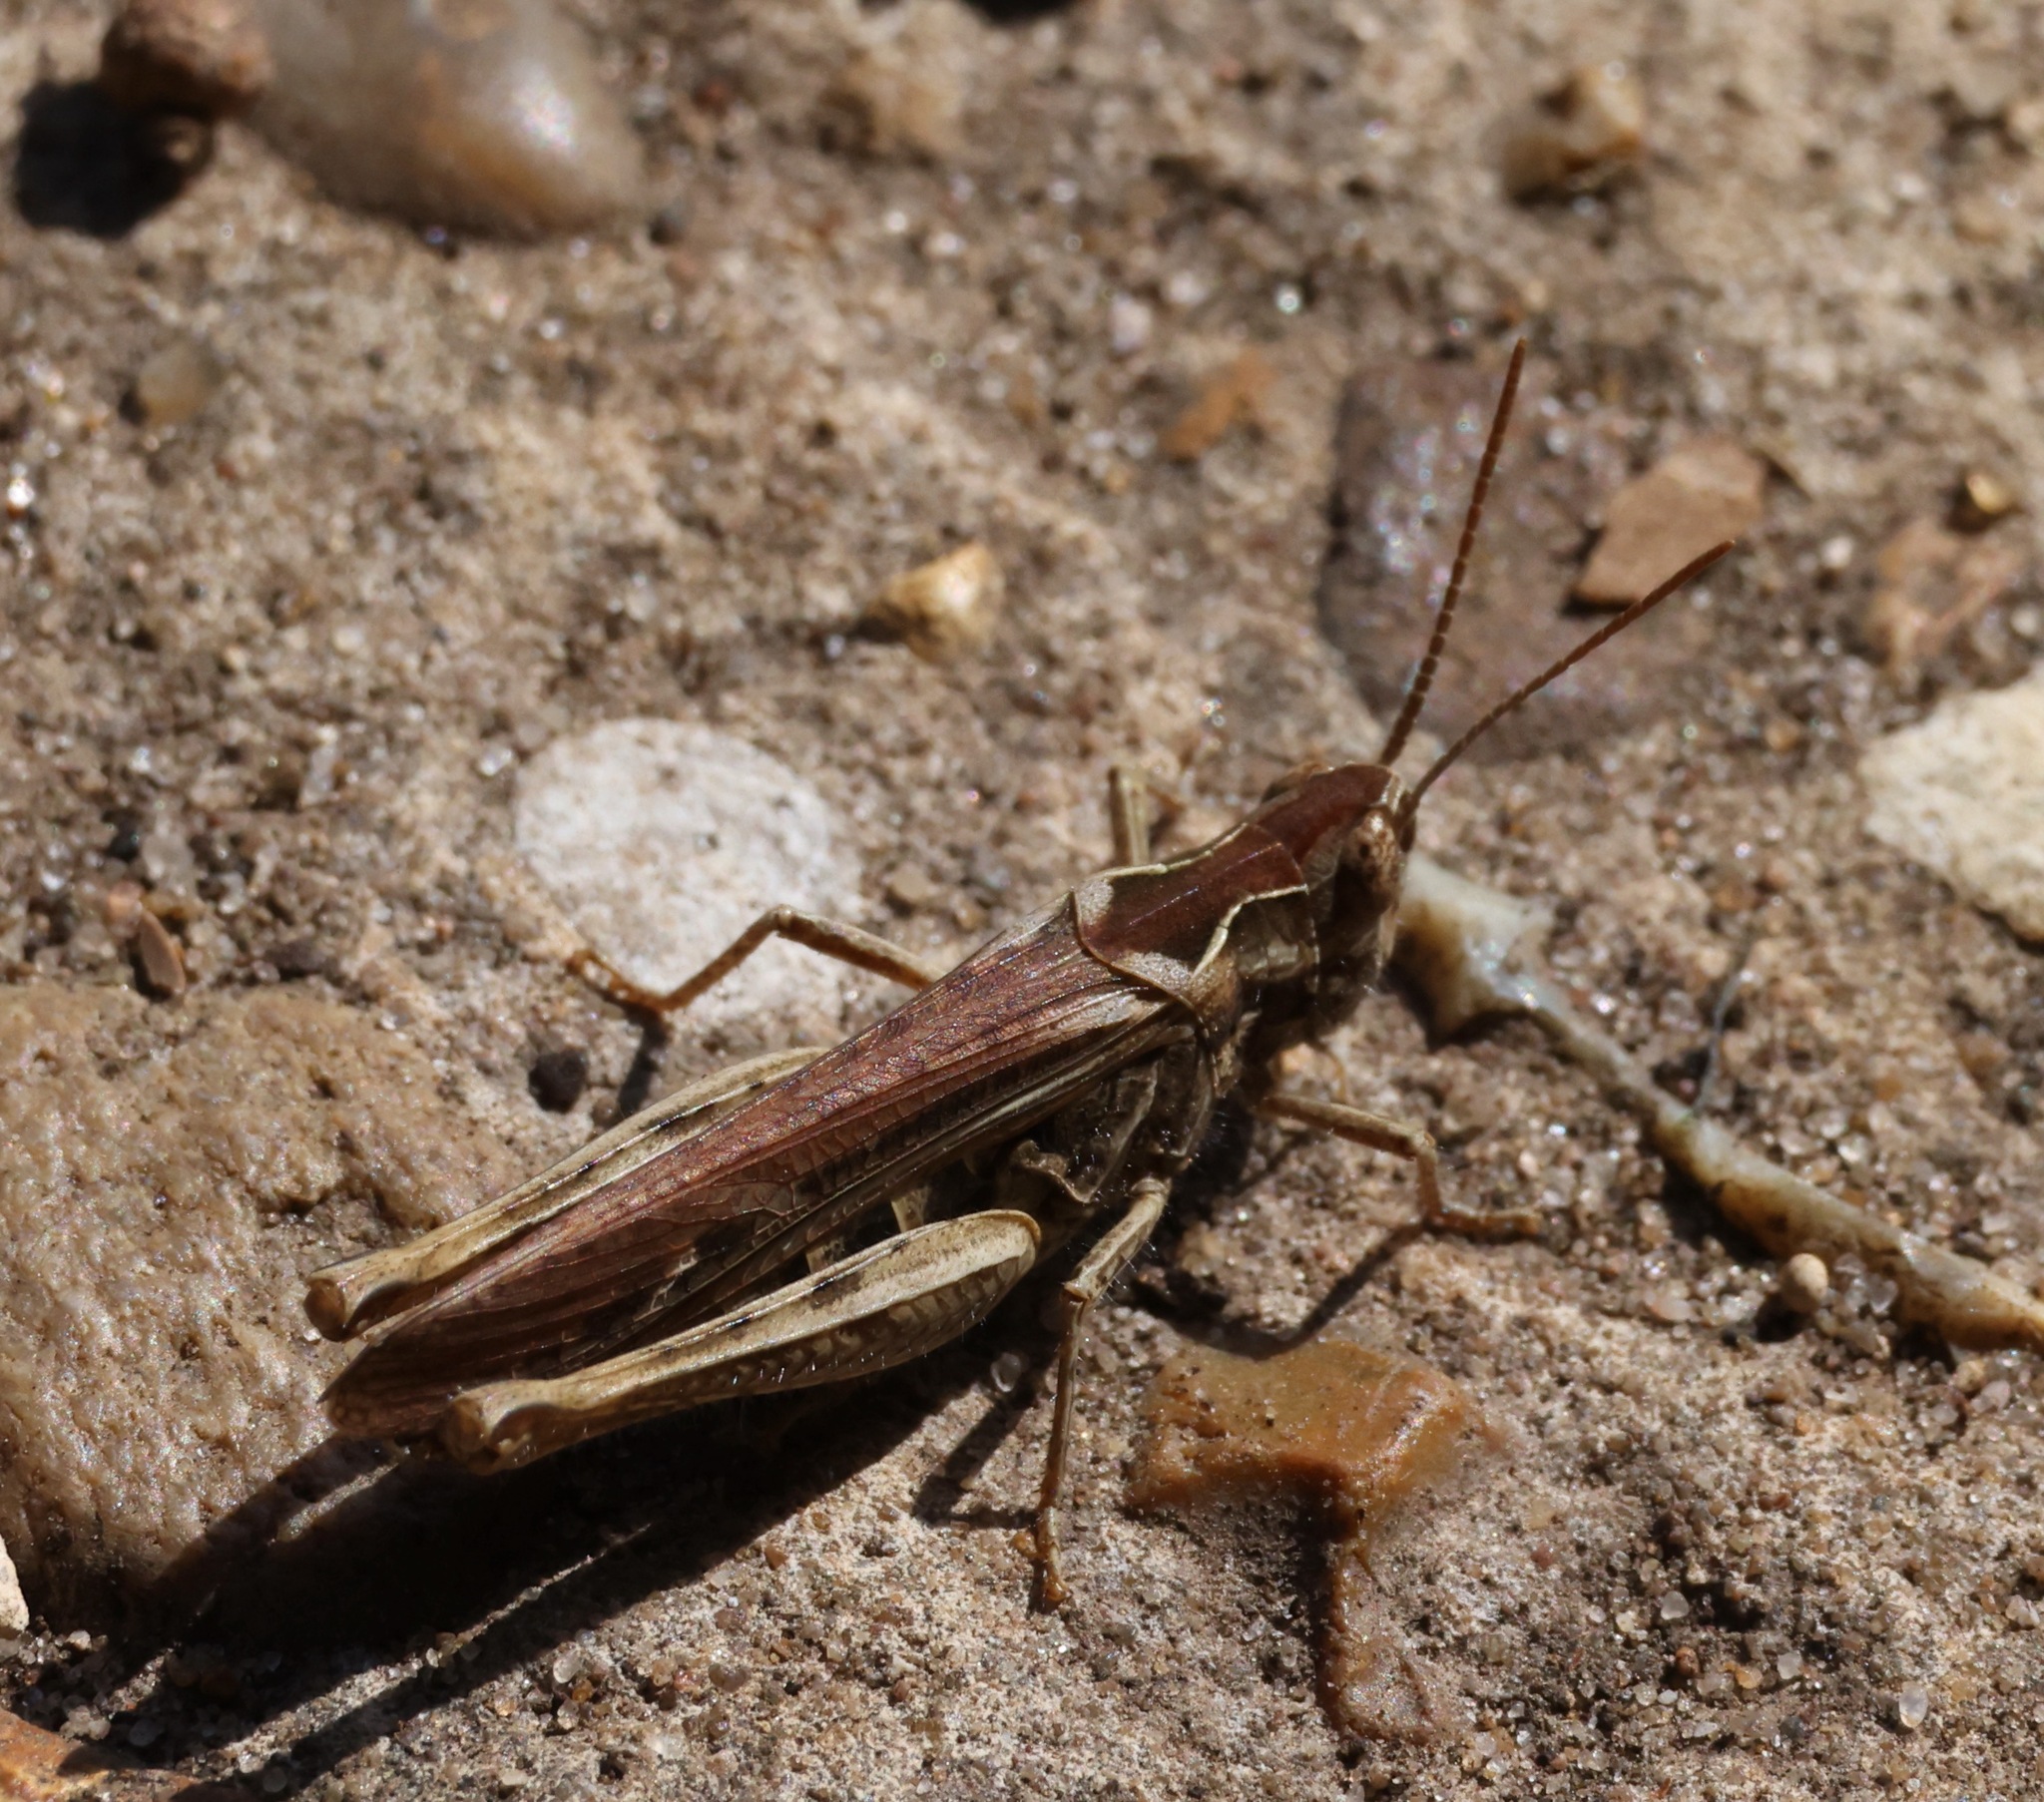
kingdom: Animalia
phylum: Arthropoda
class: Insecta
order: Orthoptera
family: Acrididae
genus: Chorthippus
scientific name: Chorthippus brunneus
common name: Field grasshopper
